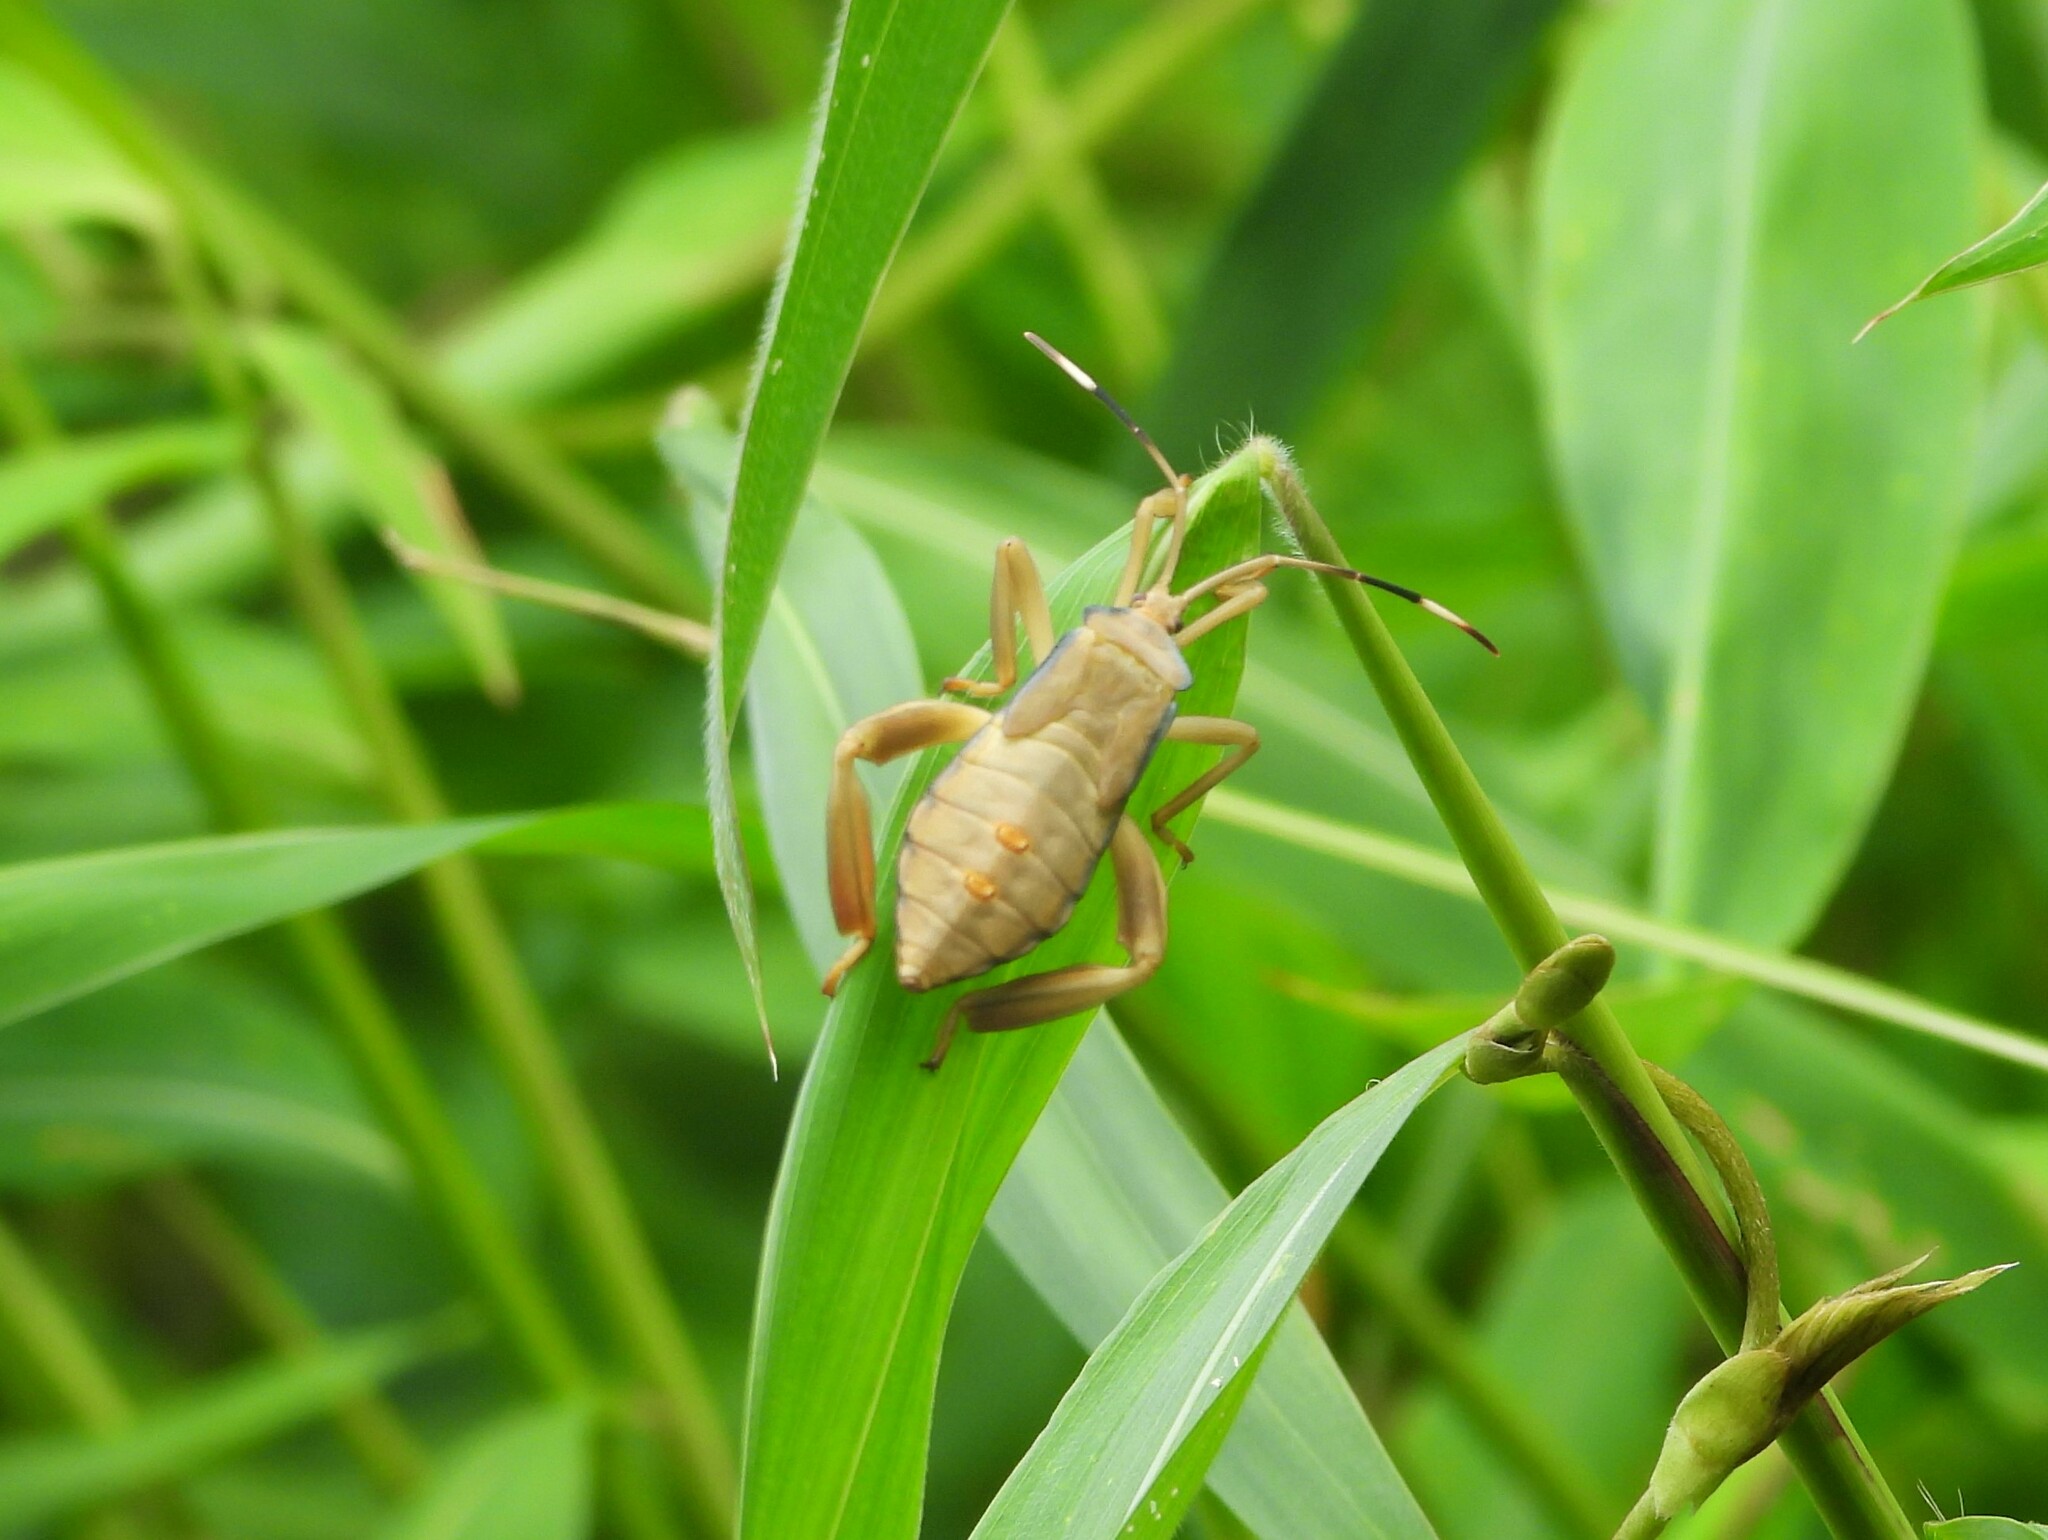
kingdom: Animalia
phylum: Arthropoda
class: Insecta
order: Hemiptera
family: Coreidae
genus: Pseudomictis
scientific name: Pseudomictis distinctus
